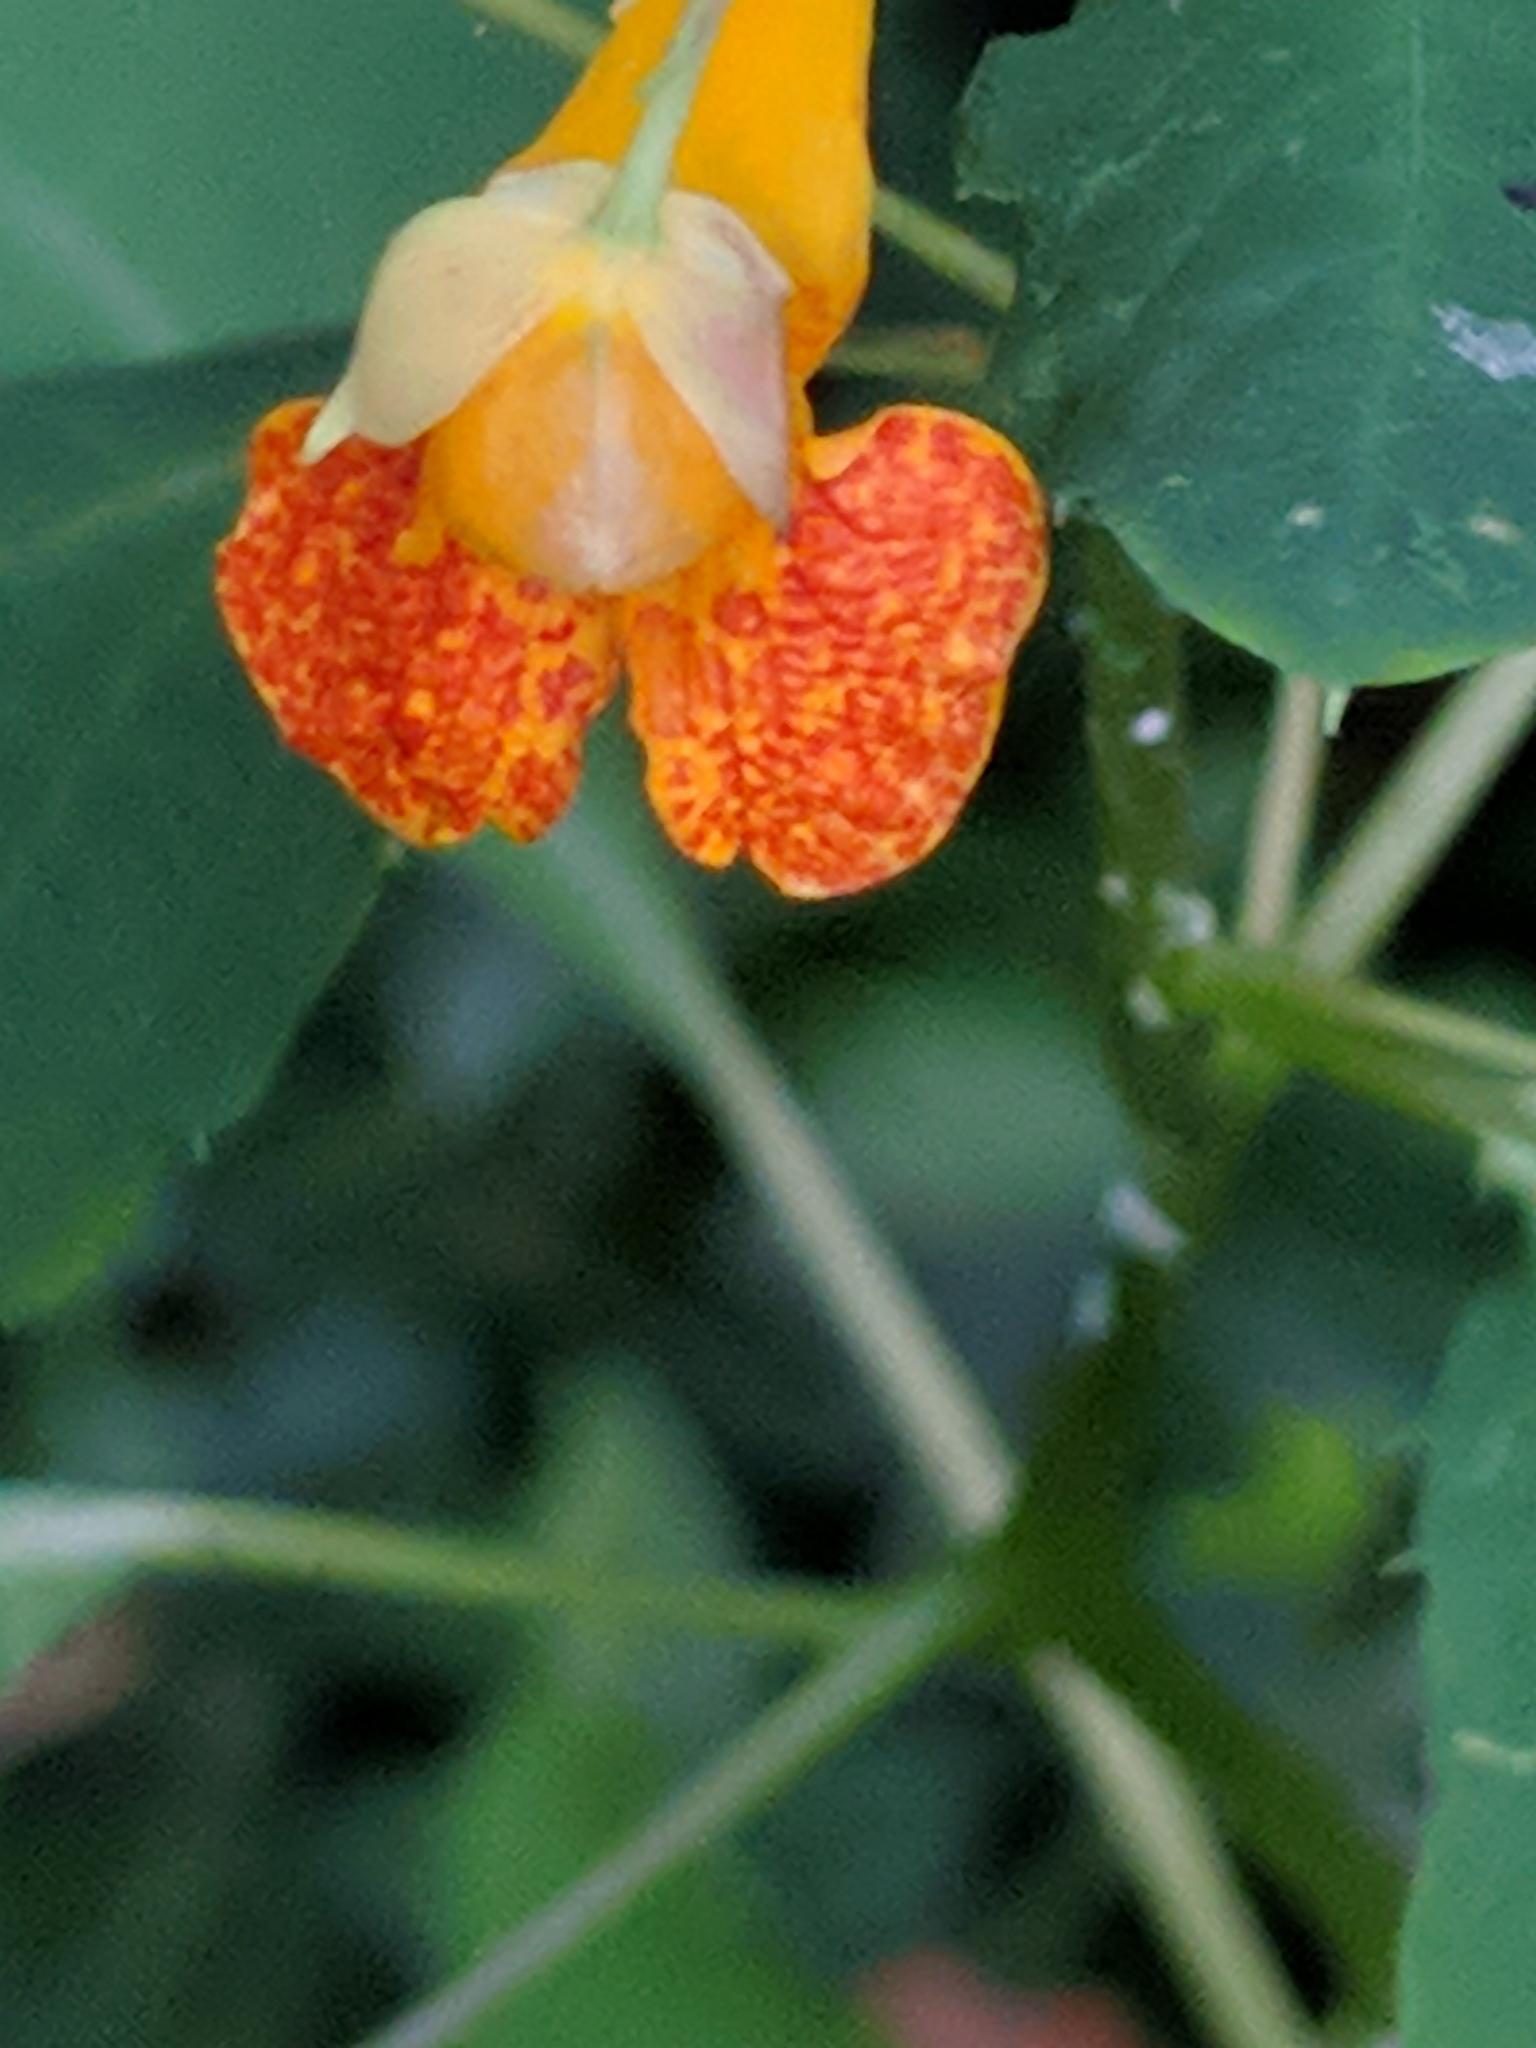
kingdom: Plantae
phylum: Tracheophyta
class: Magnoliopsida
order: Ericales
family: Balsaminaceae
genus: Impatiens
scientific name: Impatiens capensis
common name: Orange balsam
